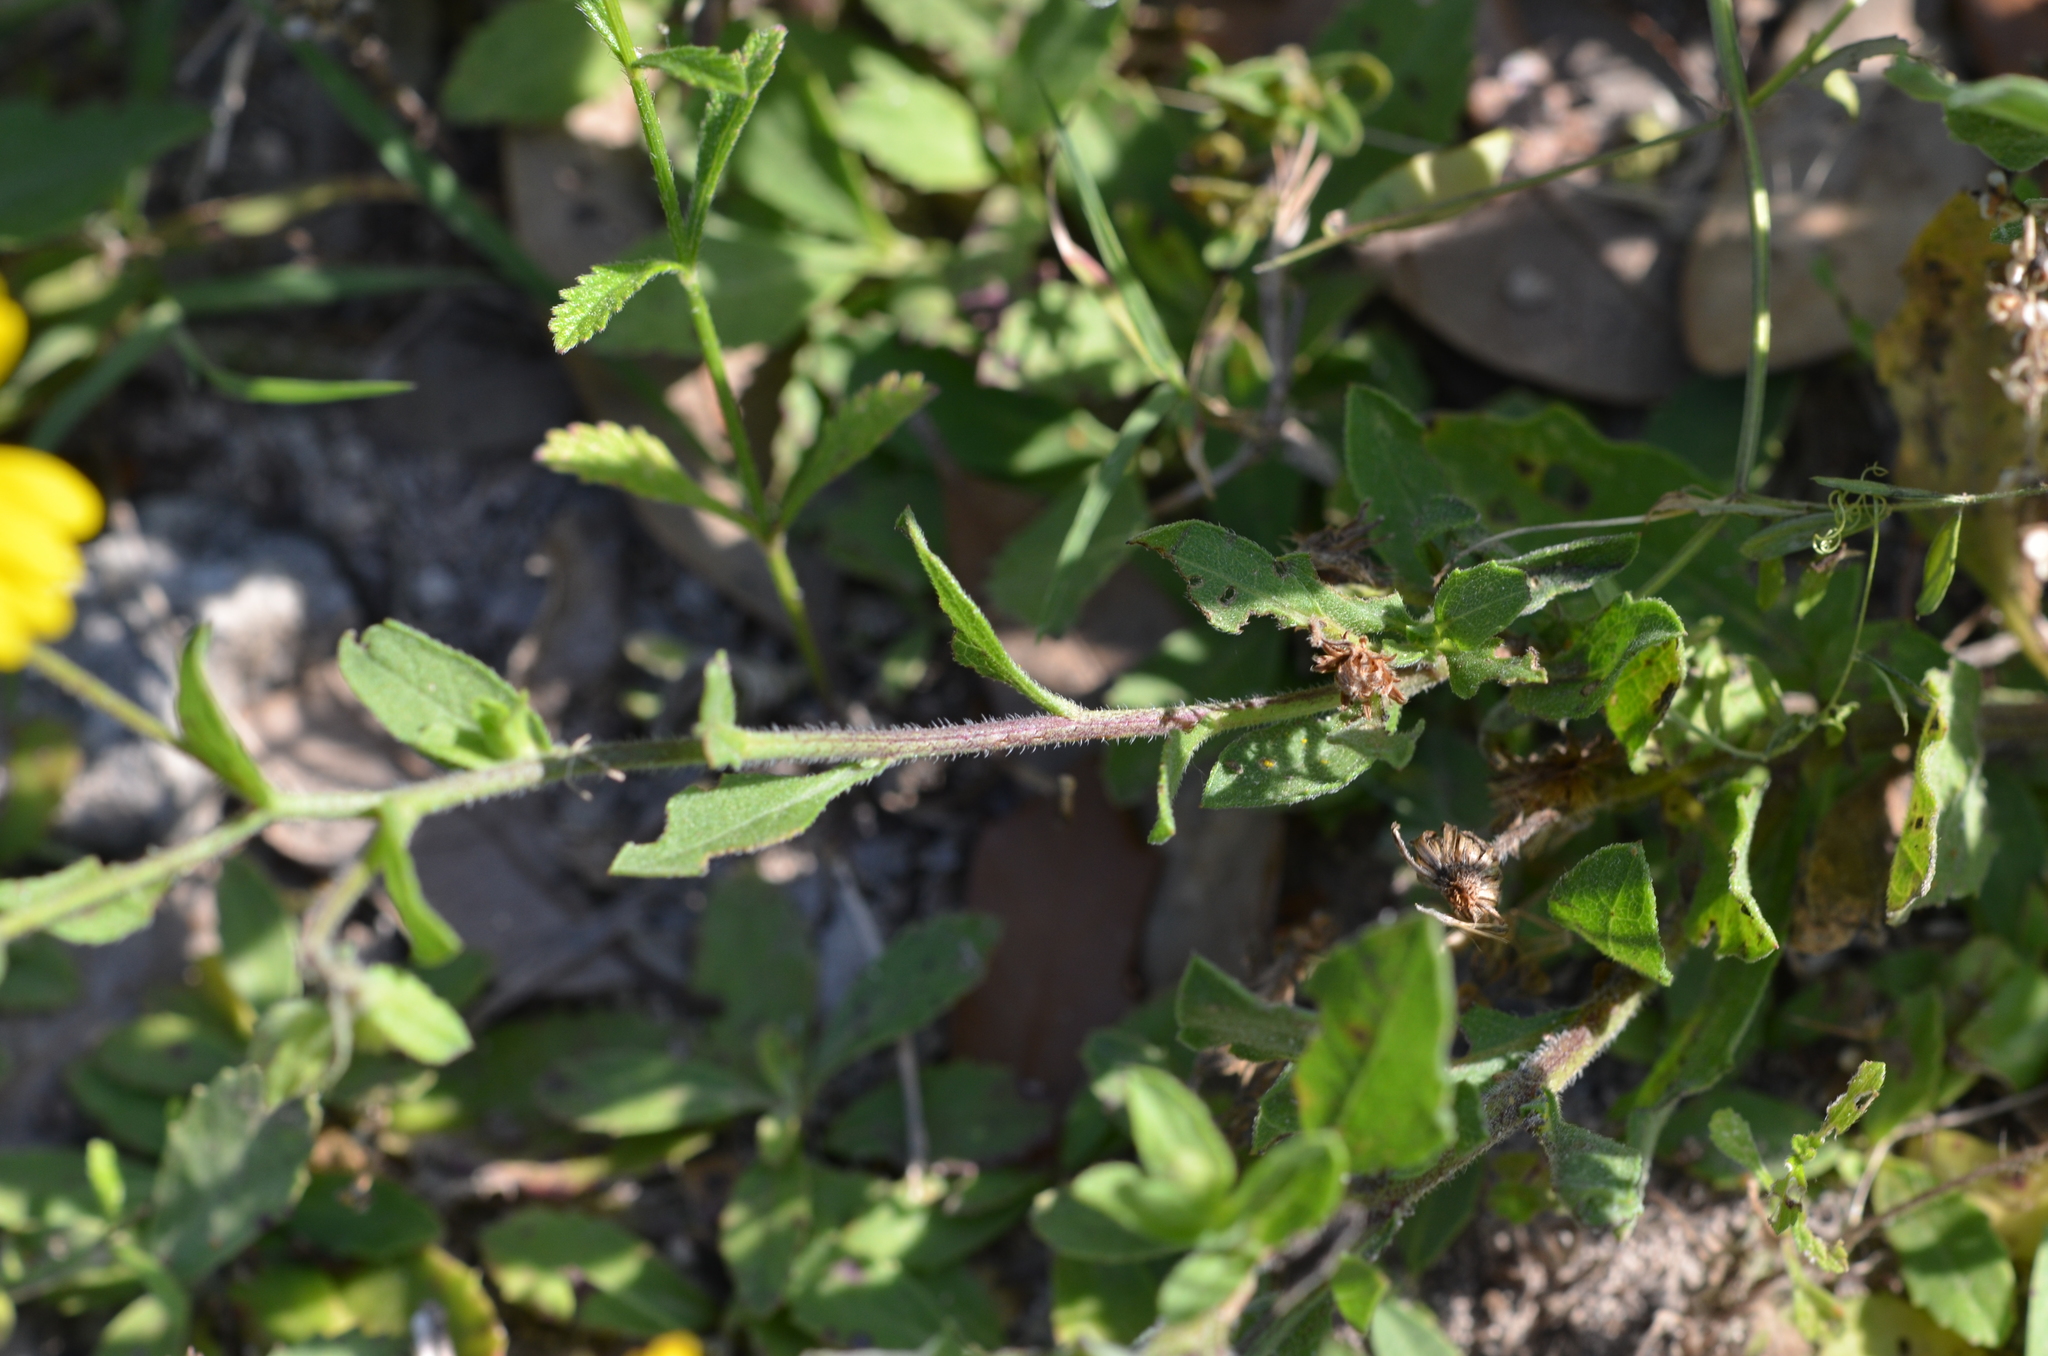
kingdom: Plantae
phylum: Tracheophyta
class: Magnoliopsida
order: Asterales
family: Asteraceae
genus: Heterotheca
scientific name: Heterotheca subaxillaris
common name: Camphorweed
